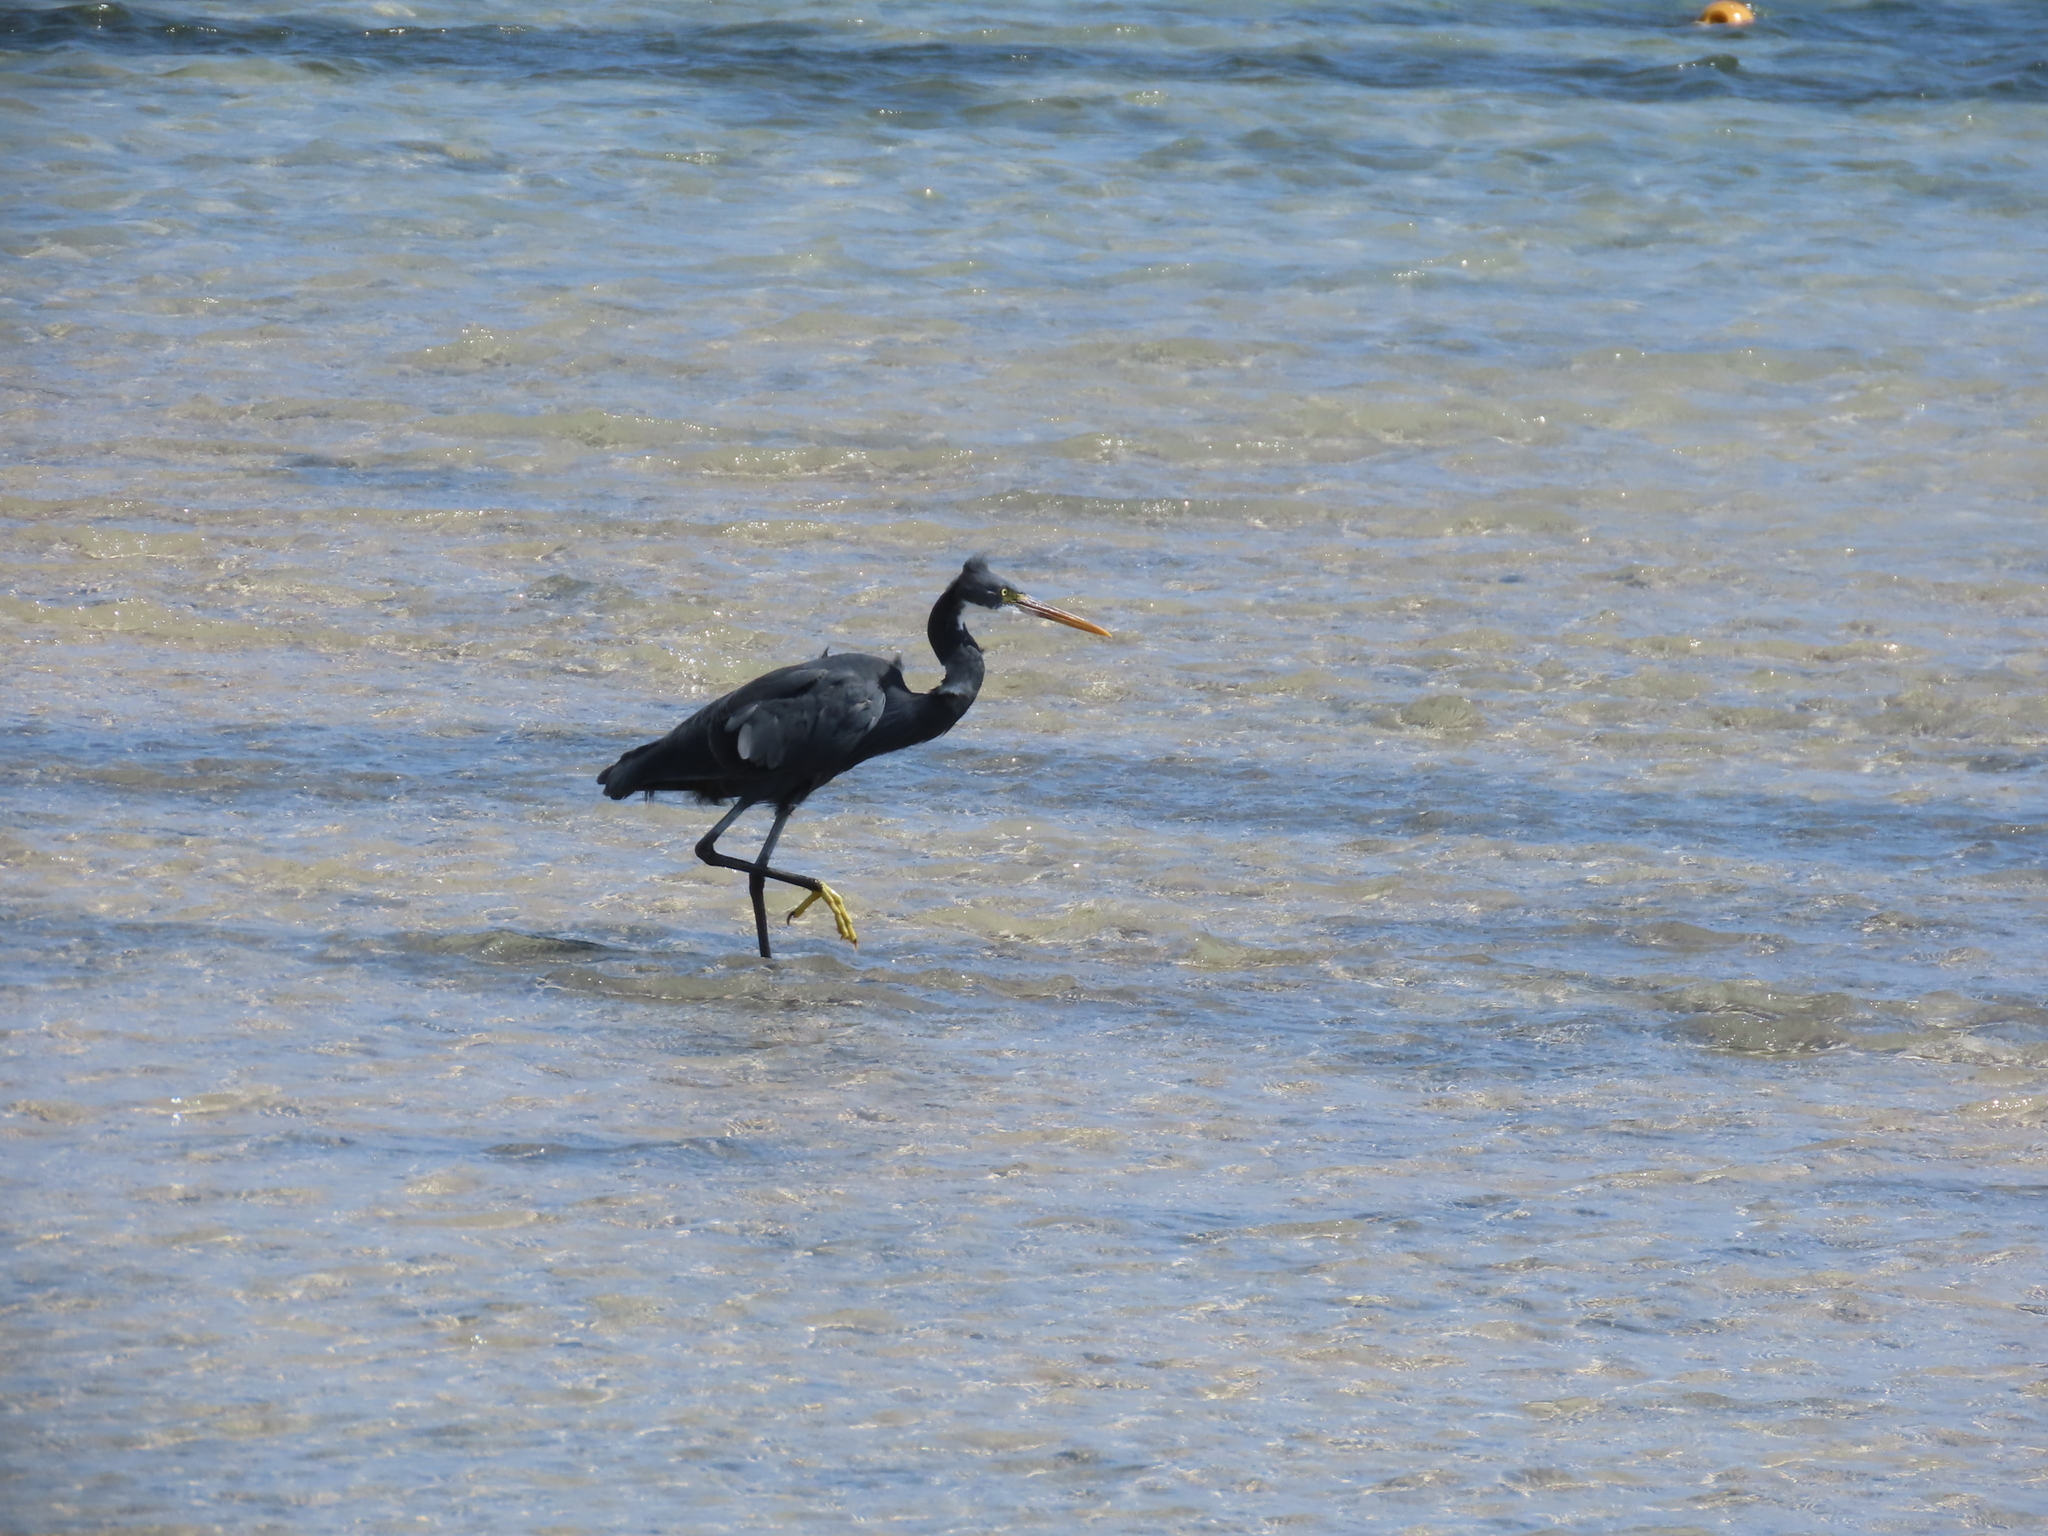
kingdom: Animalia
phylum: Chordata
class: Aves
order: Pelecaniformes
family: Ardeidae
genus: Egretta
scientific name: Egretta gularis
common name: Western reef-heron
